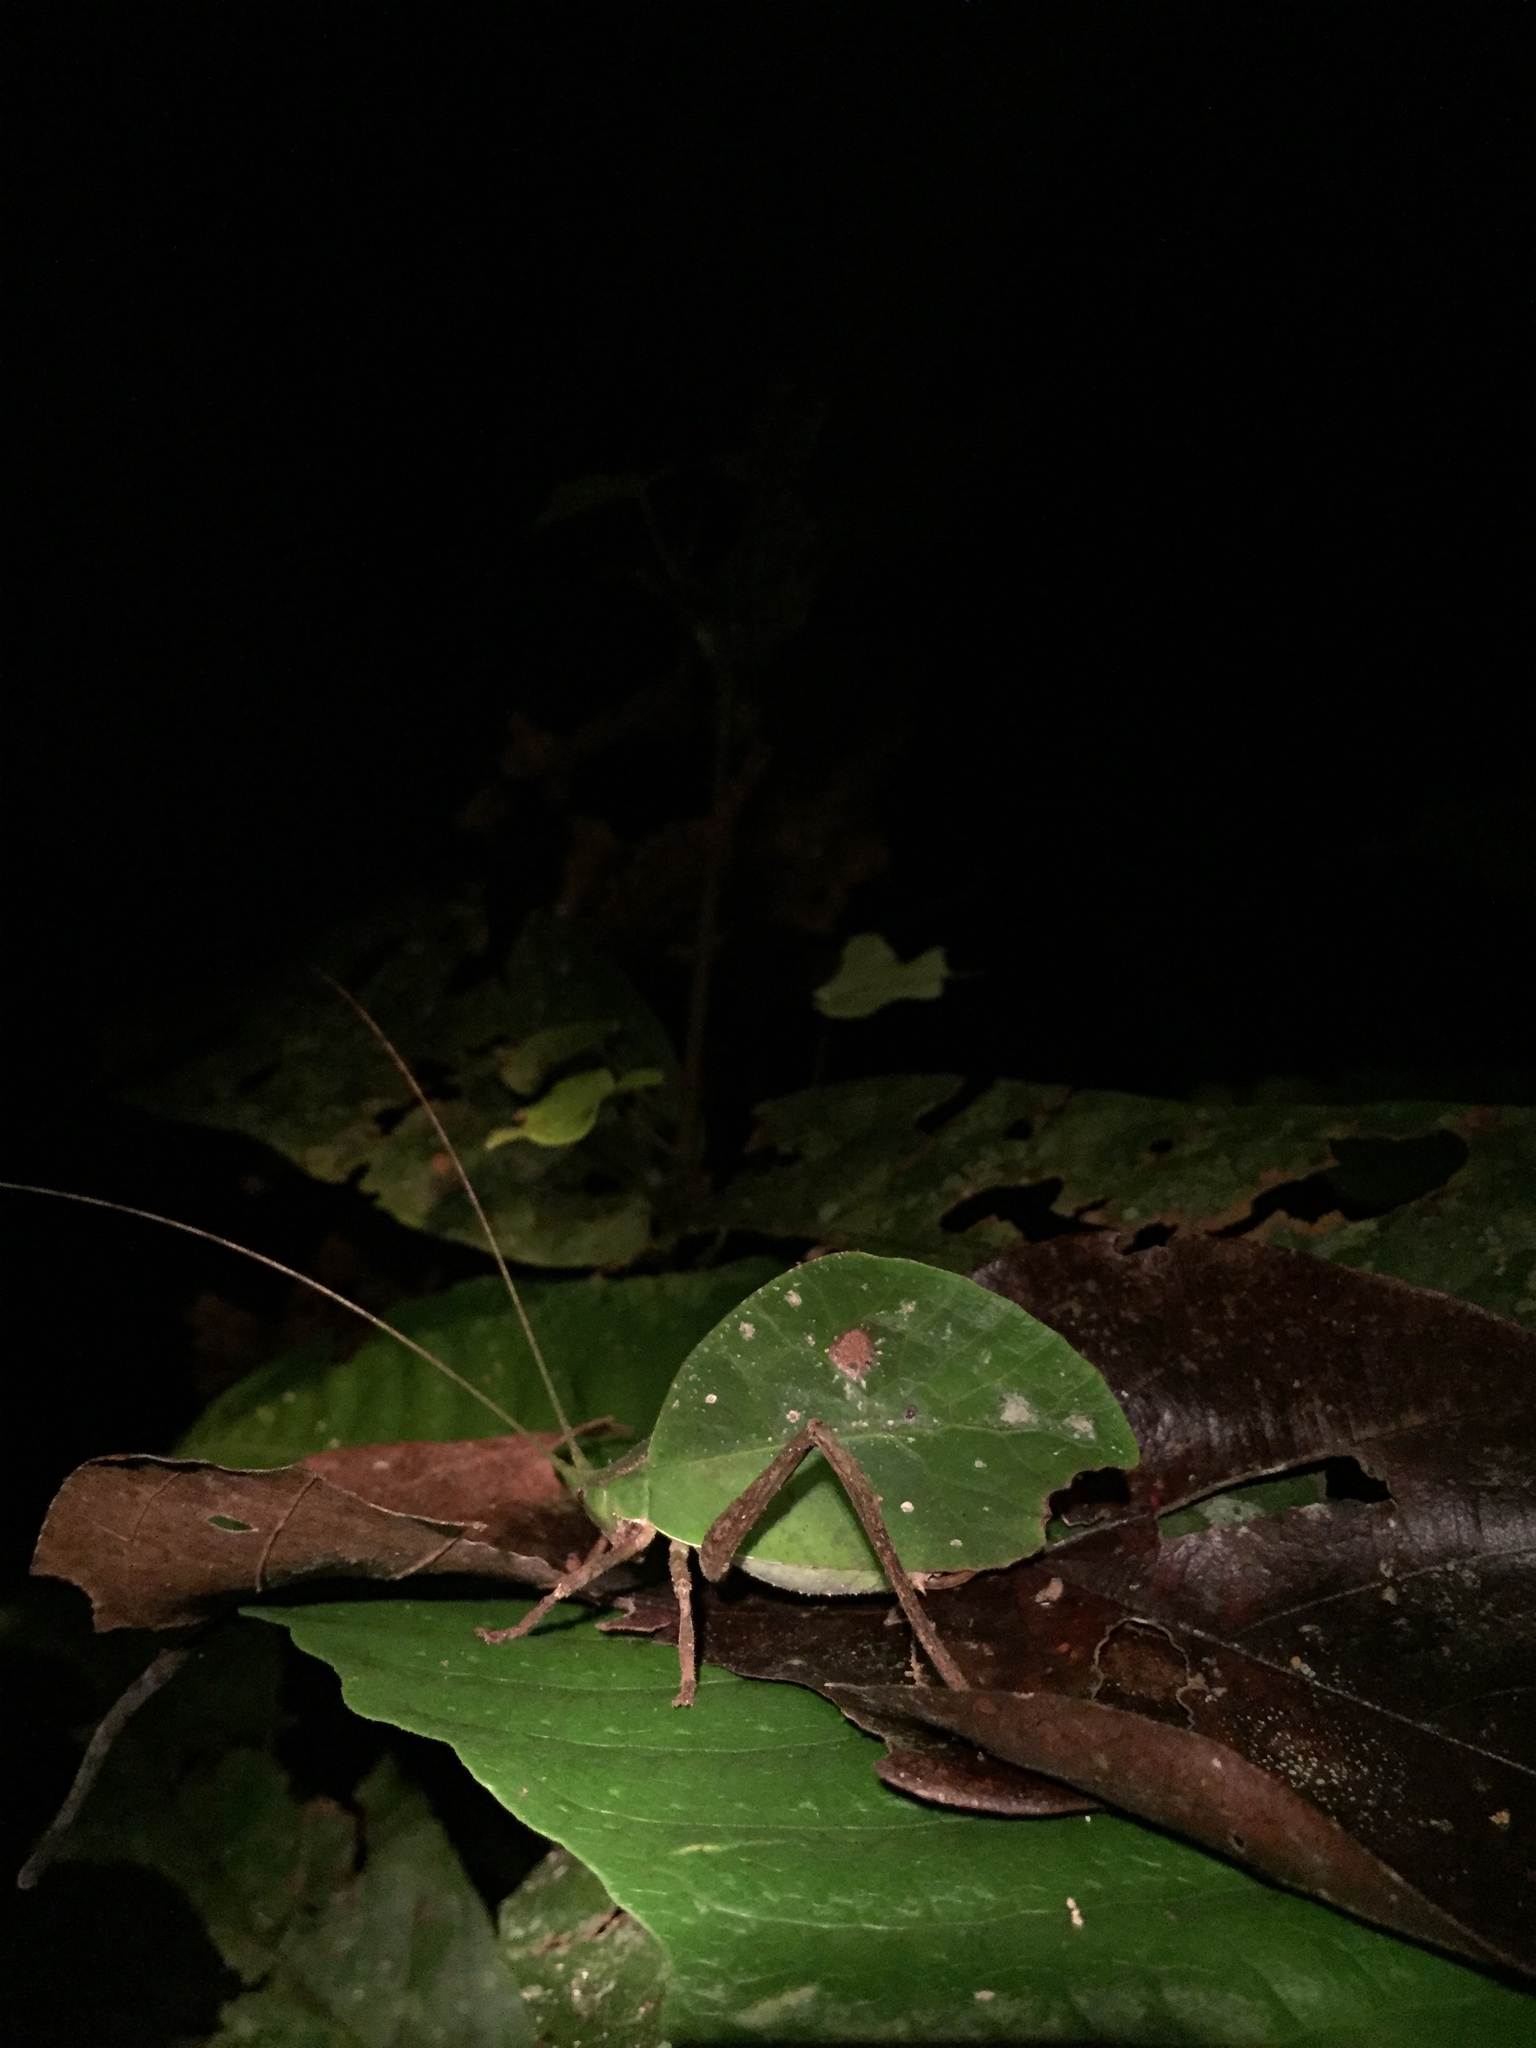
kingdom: Animalia
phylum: Arthropoda
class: Insecta
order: Orthoptera
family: Tettigoniidae
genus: Typophyllum
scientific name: Typophyllum mortuifolium
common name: Common little walking leaf
